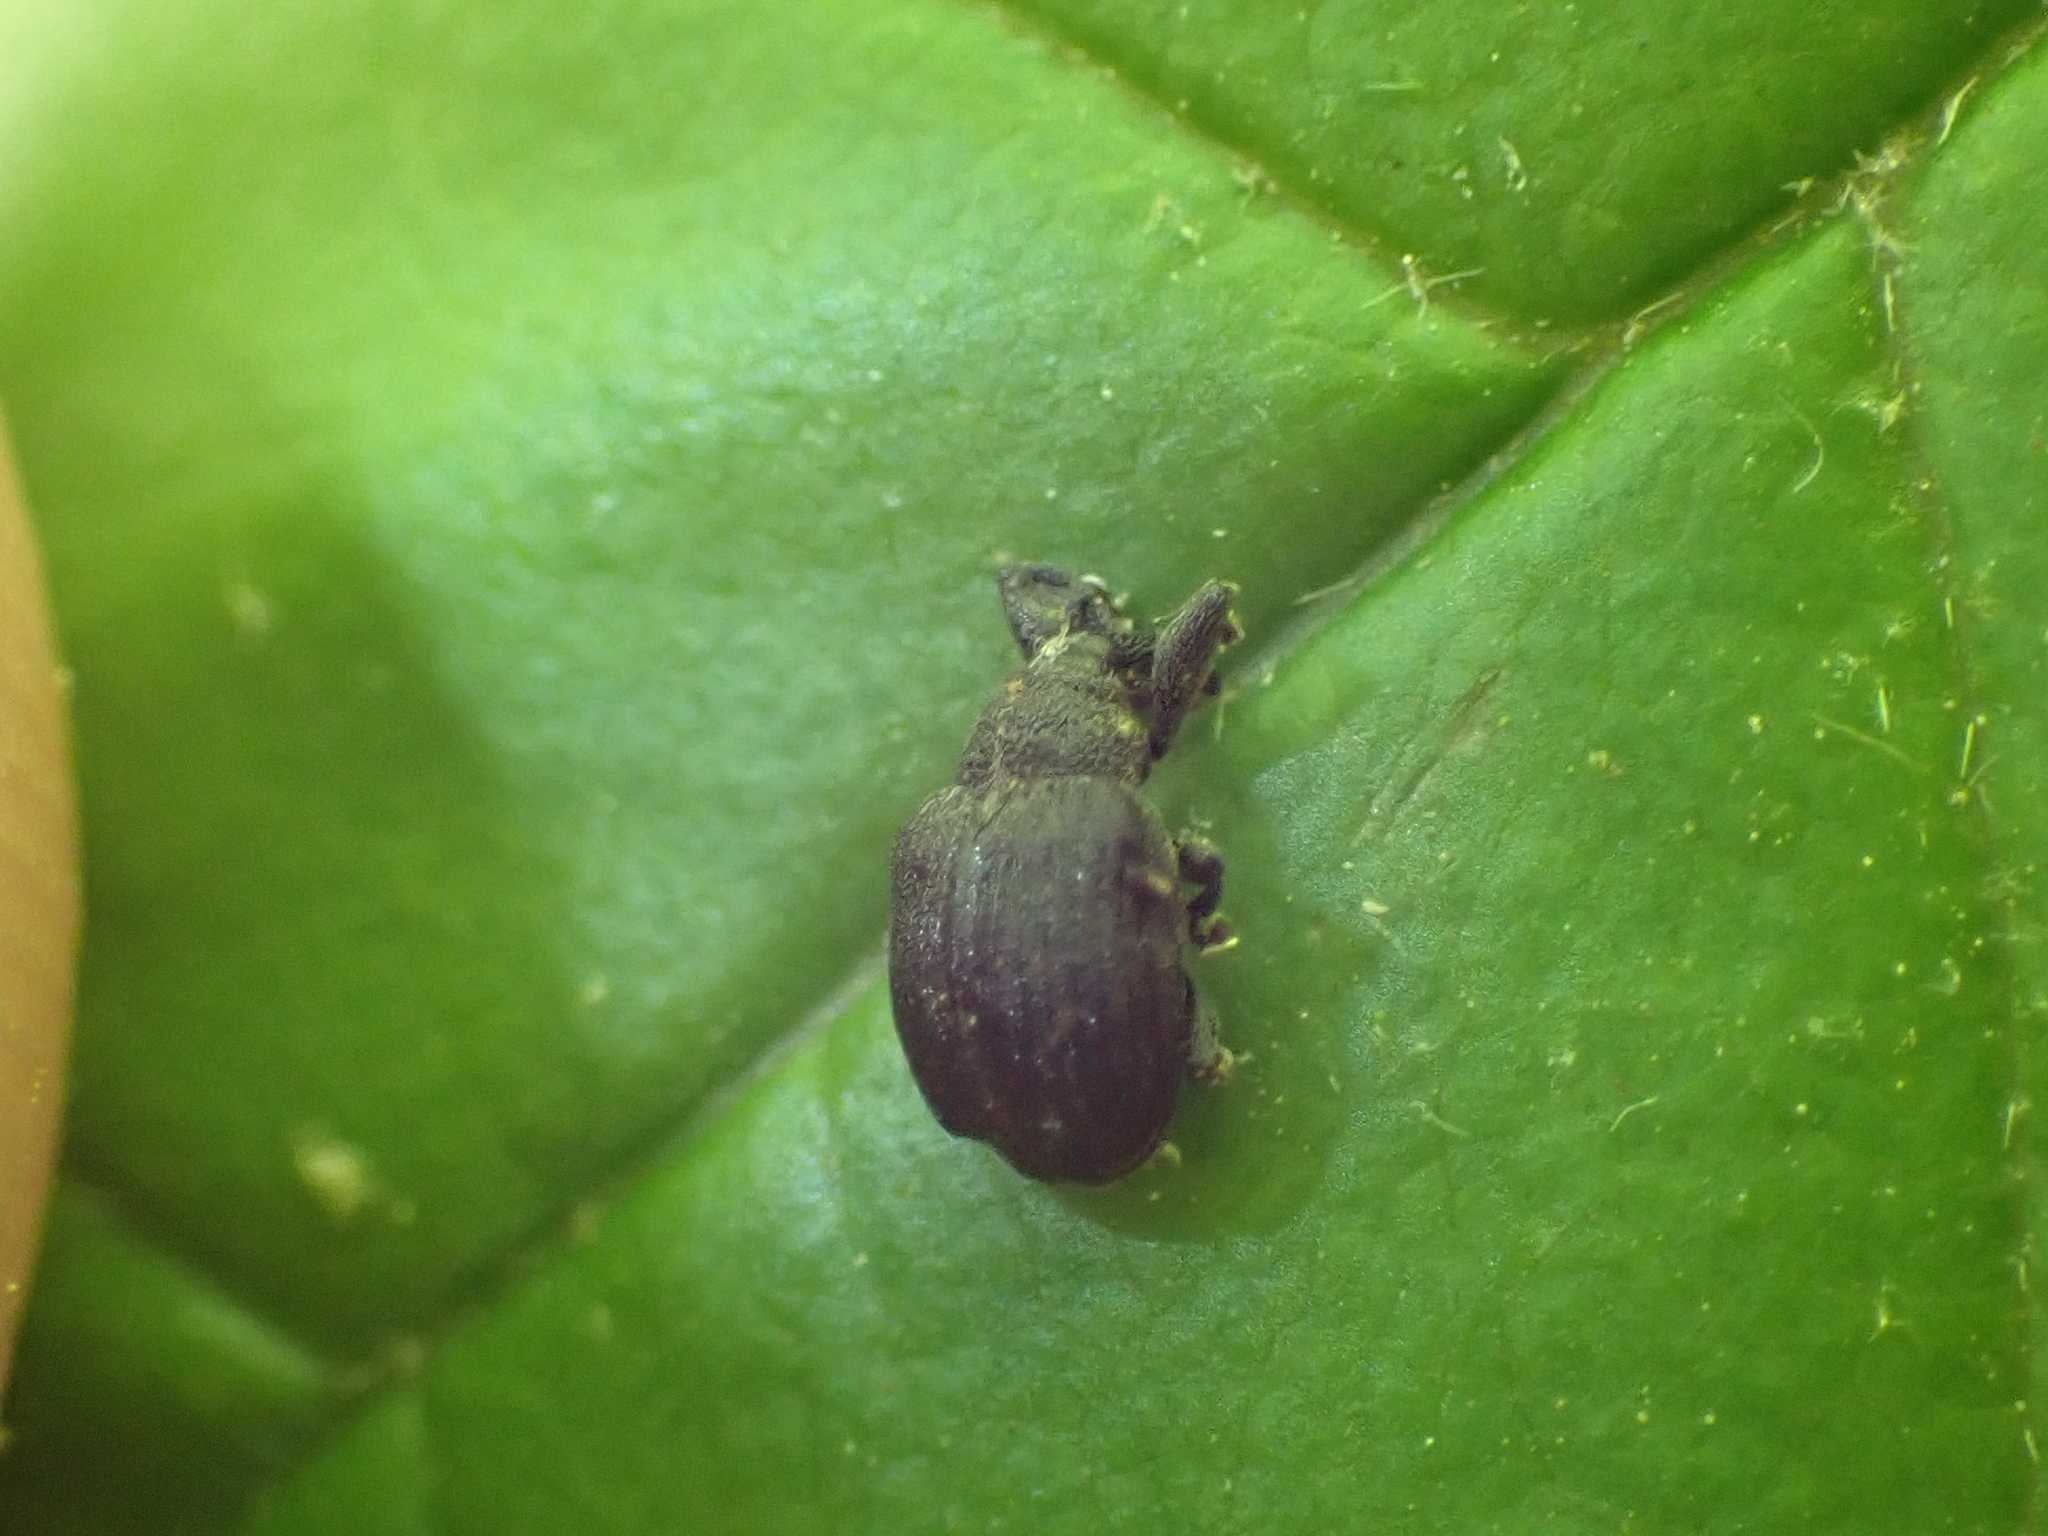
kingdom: Animalia
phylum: Arthropoda
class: Insecta
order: Coleoptera
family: Curculionidae
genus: Odontopus
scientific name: Odontopus calceatus
